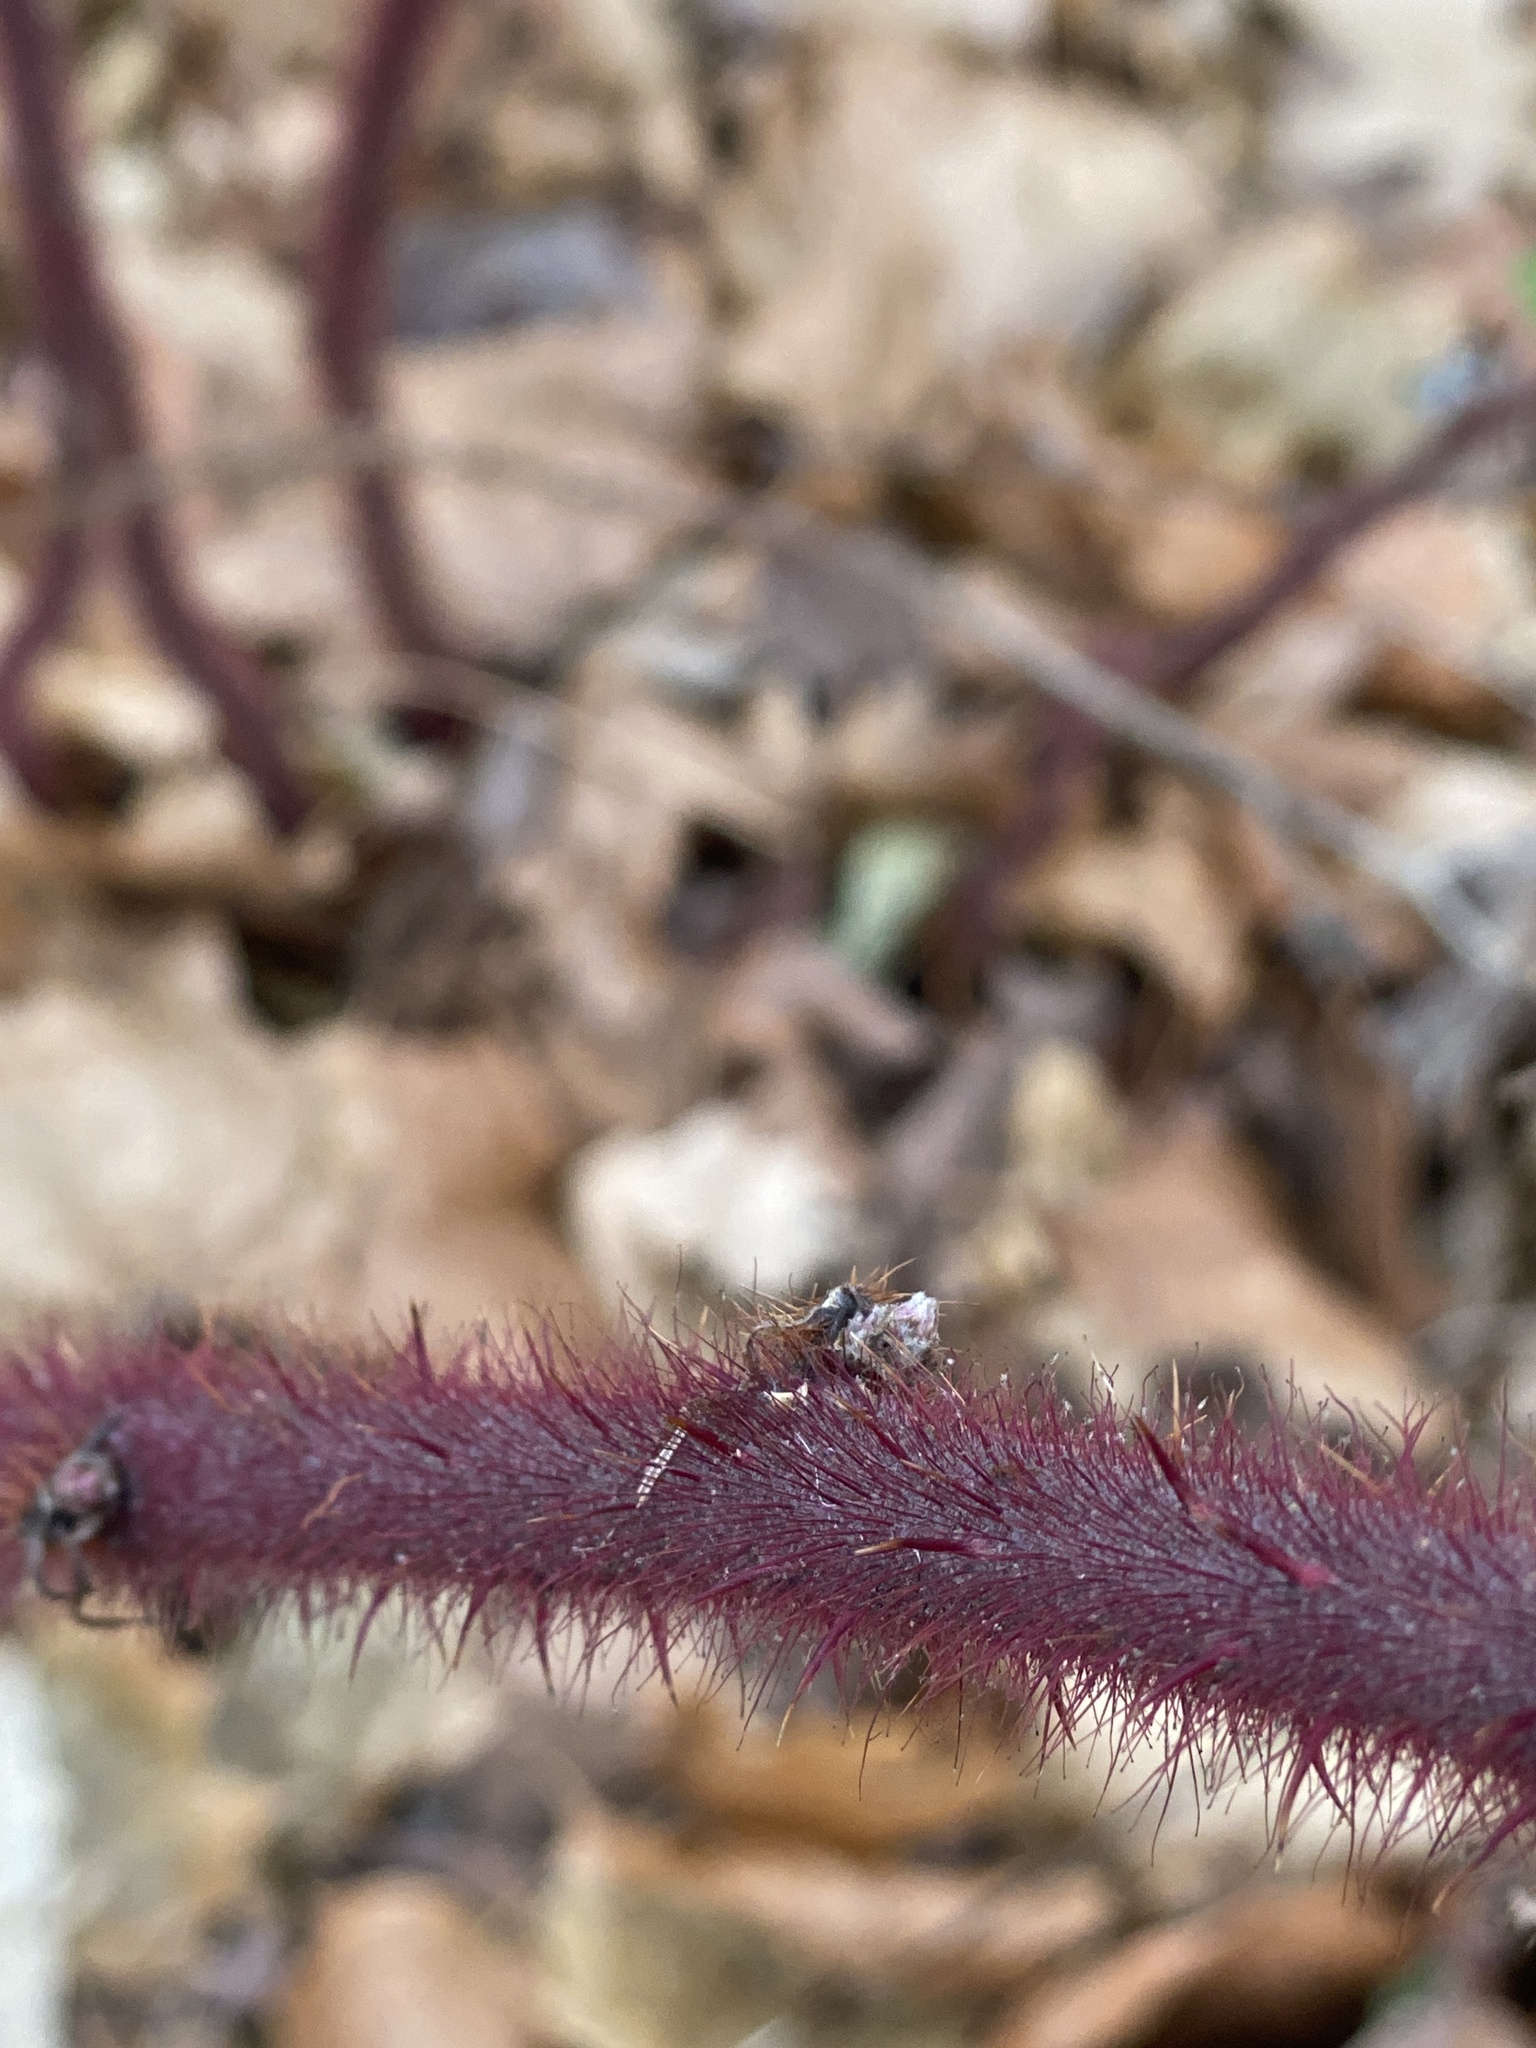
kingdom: Plantae
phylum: Tracheophyta
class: Magnoliopsida
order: Rosales
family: Rosaceae
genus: Rubus
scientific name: Rubus phoenicolasius
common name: Japanese wineberry
